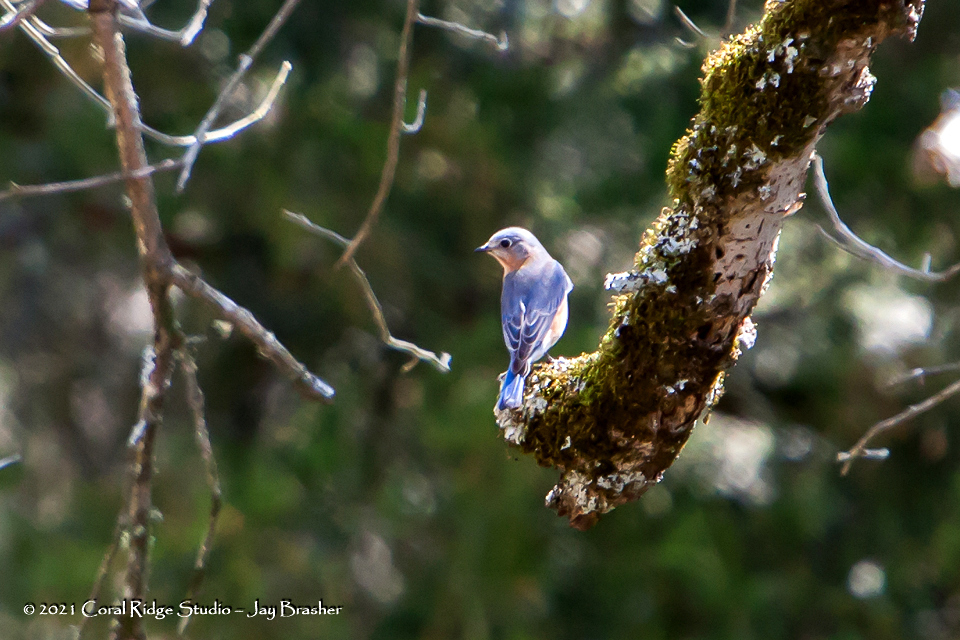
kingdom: Animalia
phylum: Chordata
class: Aves
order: Passeriformes
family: Turdidae
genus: Sialia
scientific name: Sialia sialis
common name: Eastern bluebird
